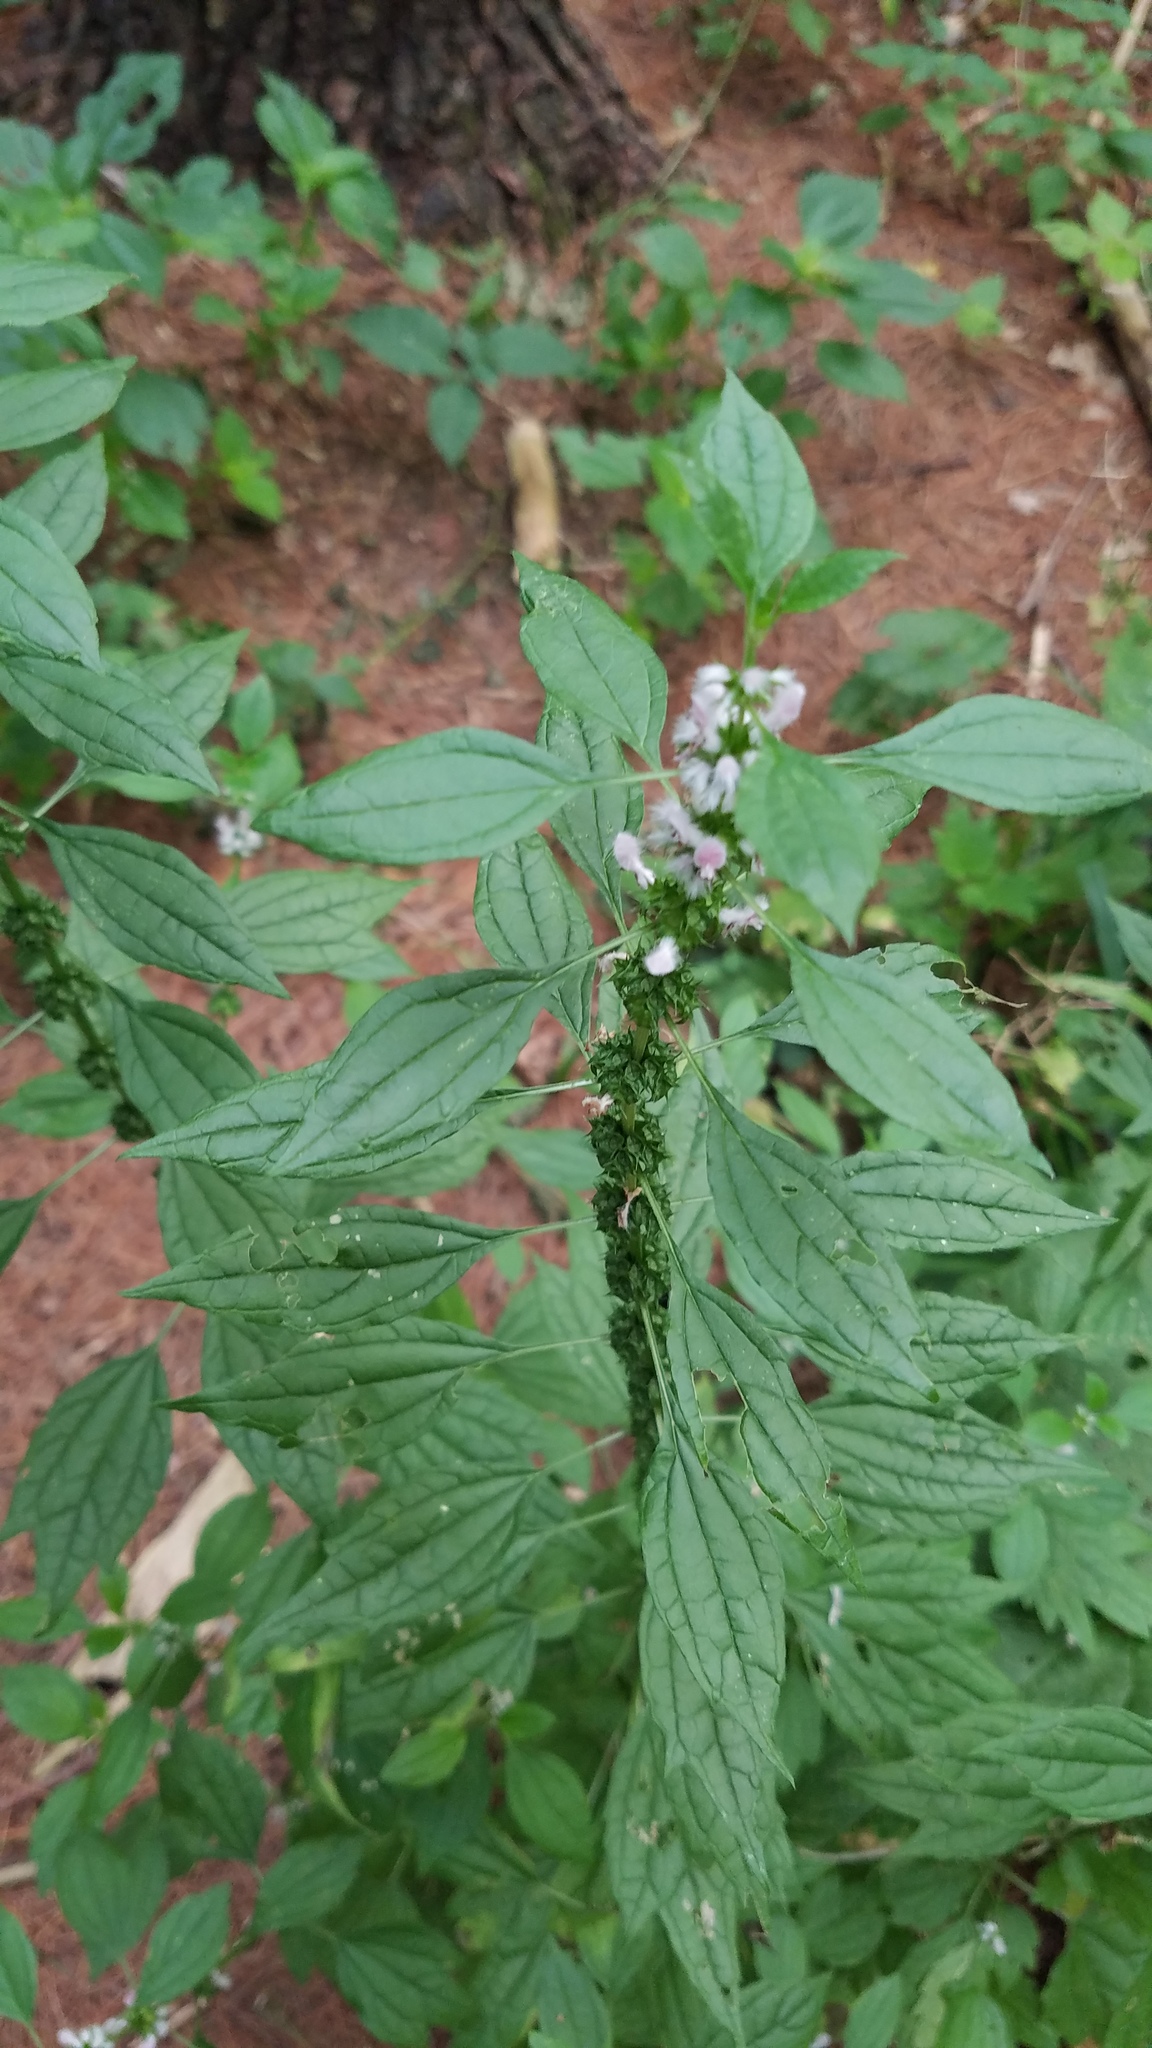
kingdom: Plantae
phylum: Tracheophyta
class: Magnoliopsida
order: Lamiales
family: Lamiaceae
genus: Leonurus
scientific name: Leonurus cardiaca
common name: Motherwort
